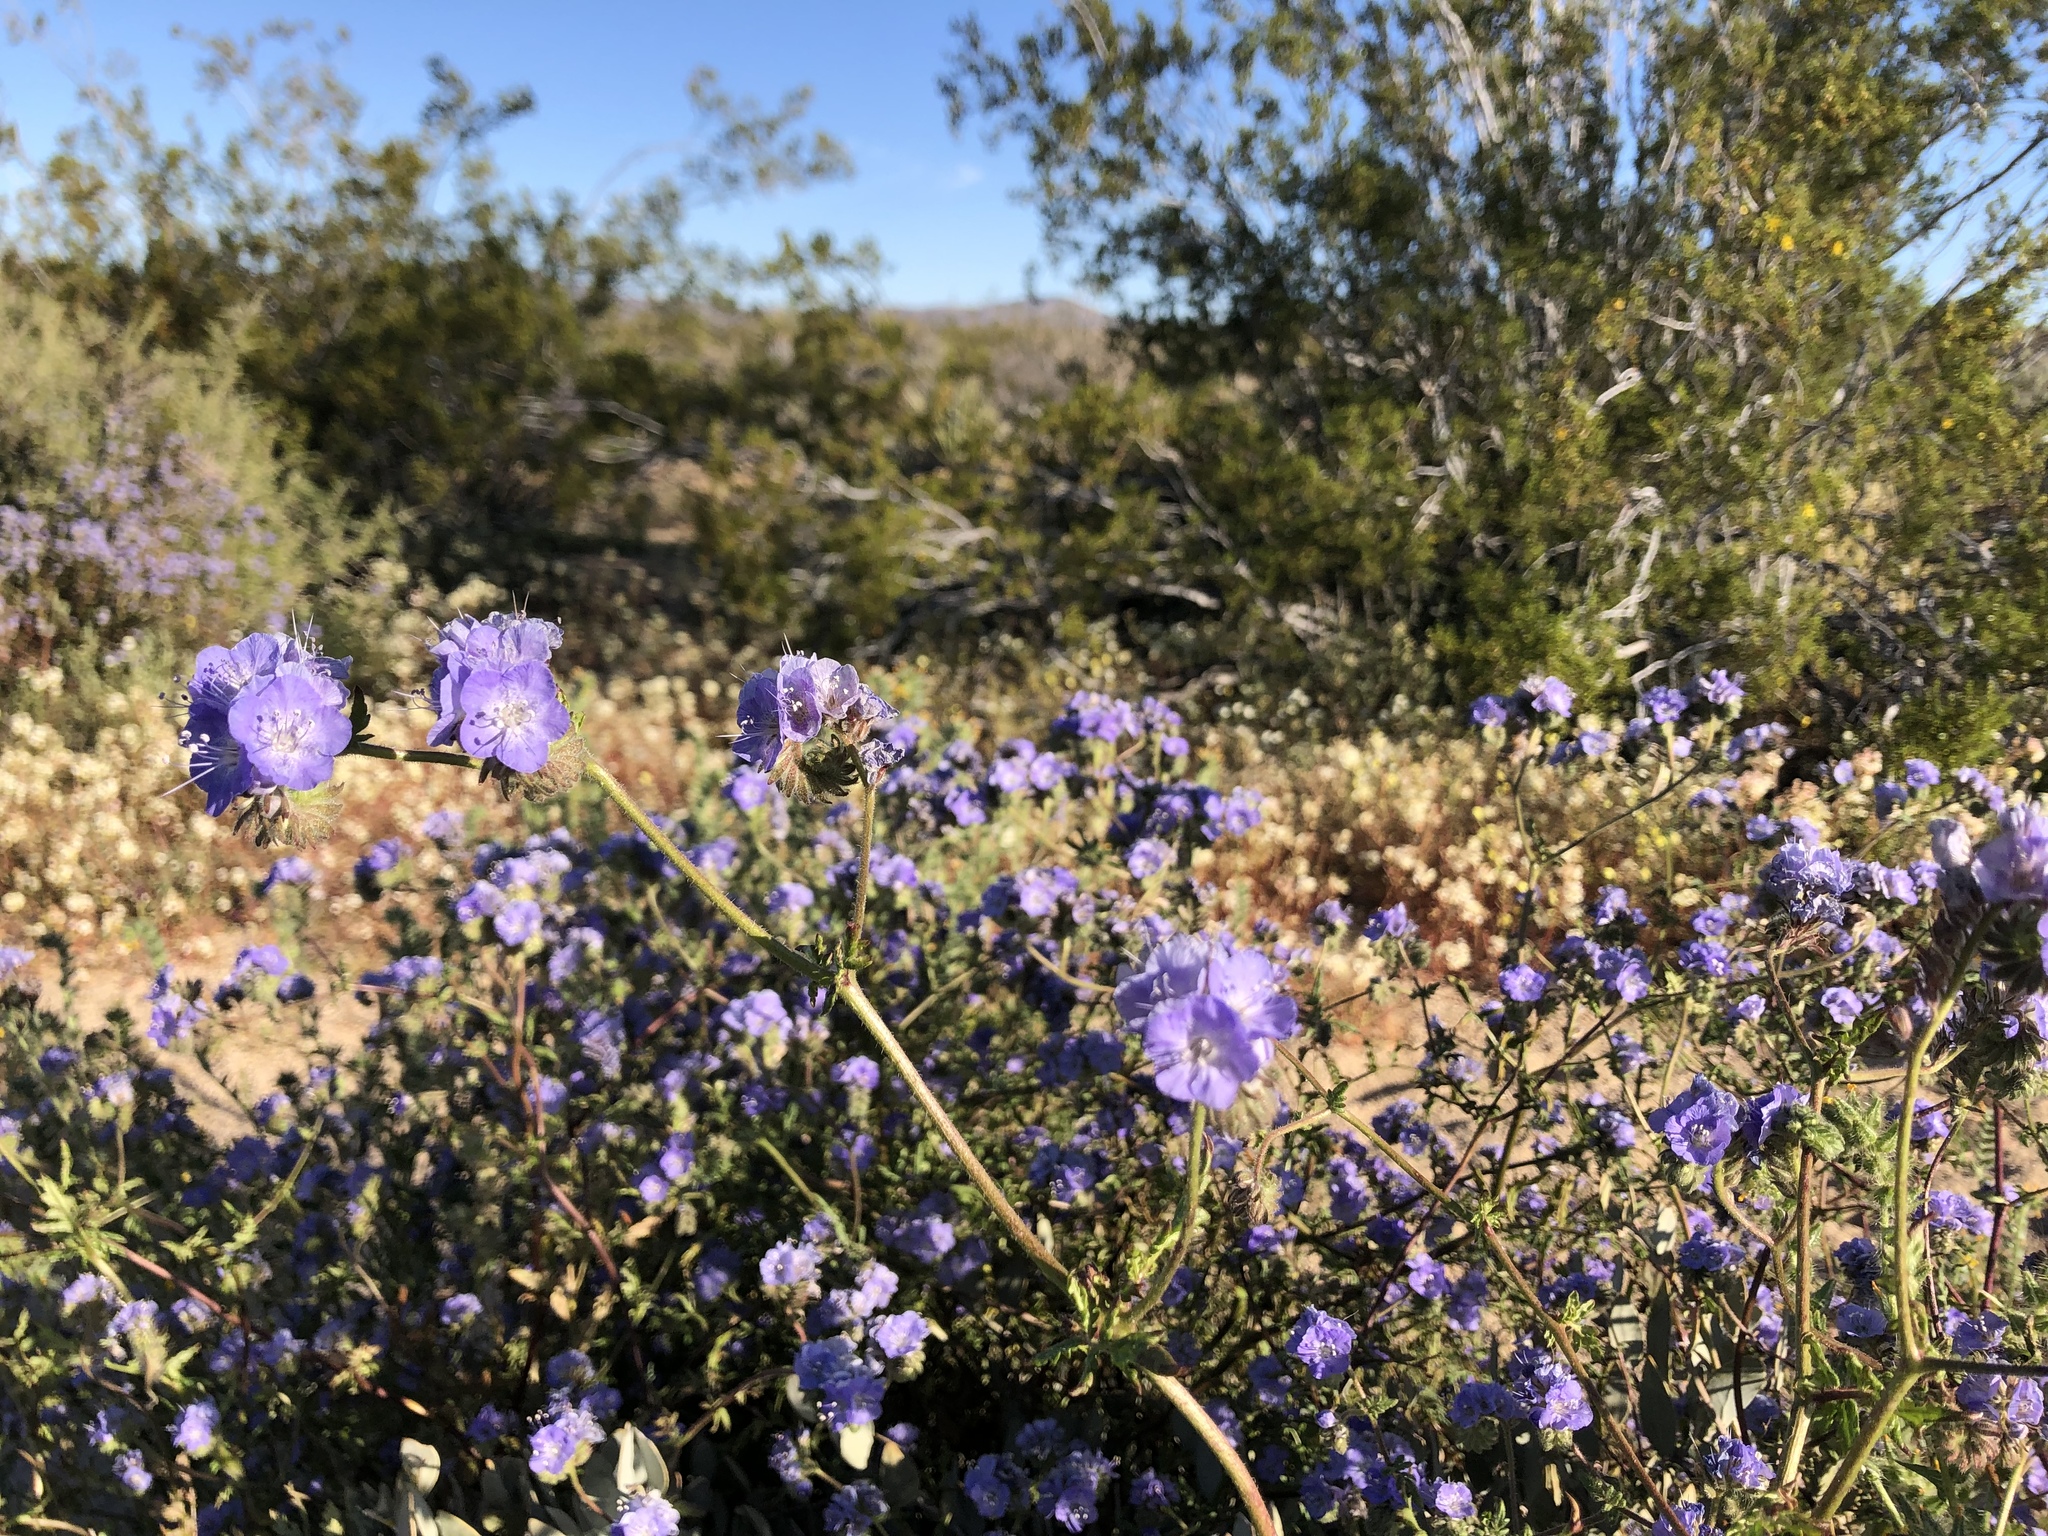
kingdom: Plantae
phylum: Tracheophyta
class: Magnoliopsida
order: Boraginales
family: Hydrophyllaceae
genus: Phacelia
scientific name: Phacelia distans
